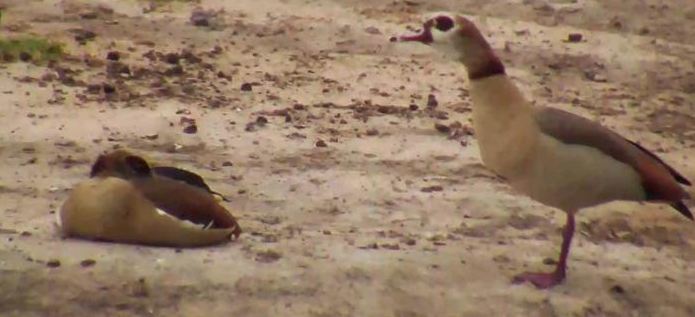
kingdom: Animalia
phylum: Chordata
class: Aves
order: Anseriformes
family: Anatidae
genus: Alopochen
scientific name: Alopochen aegyptiaca
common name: Egyptian goose
